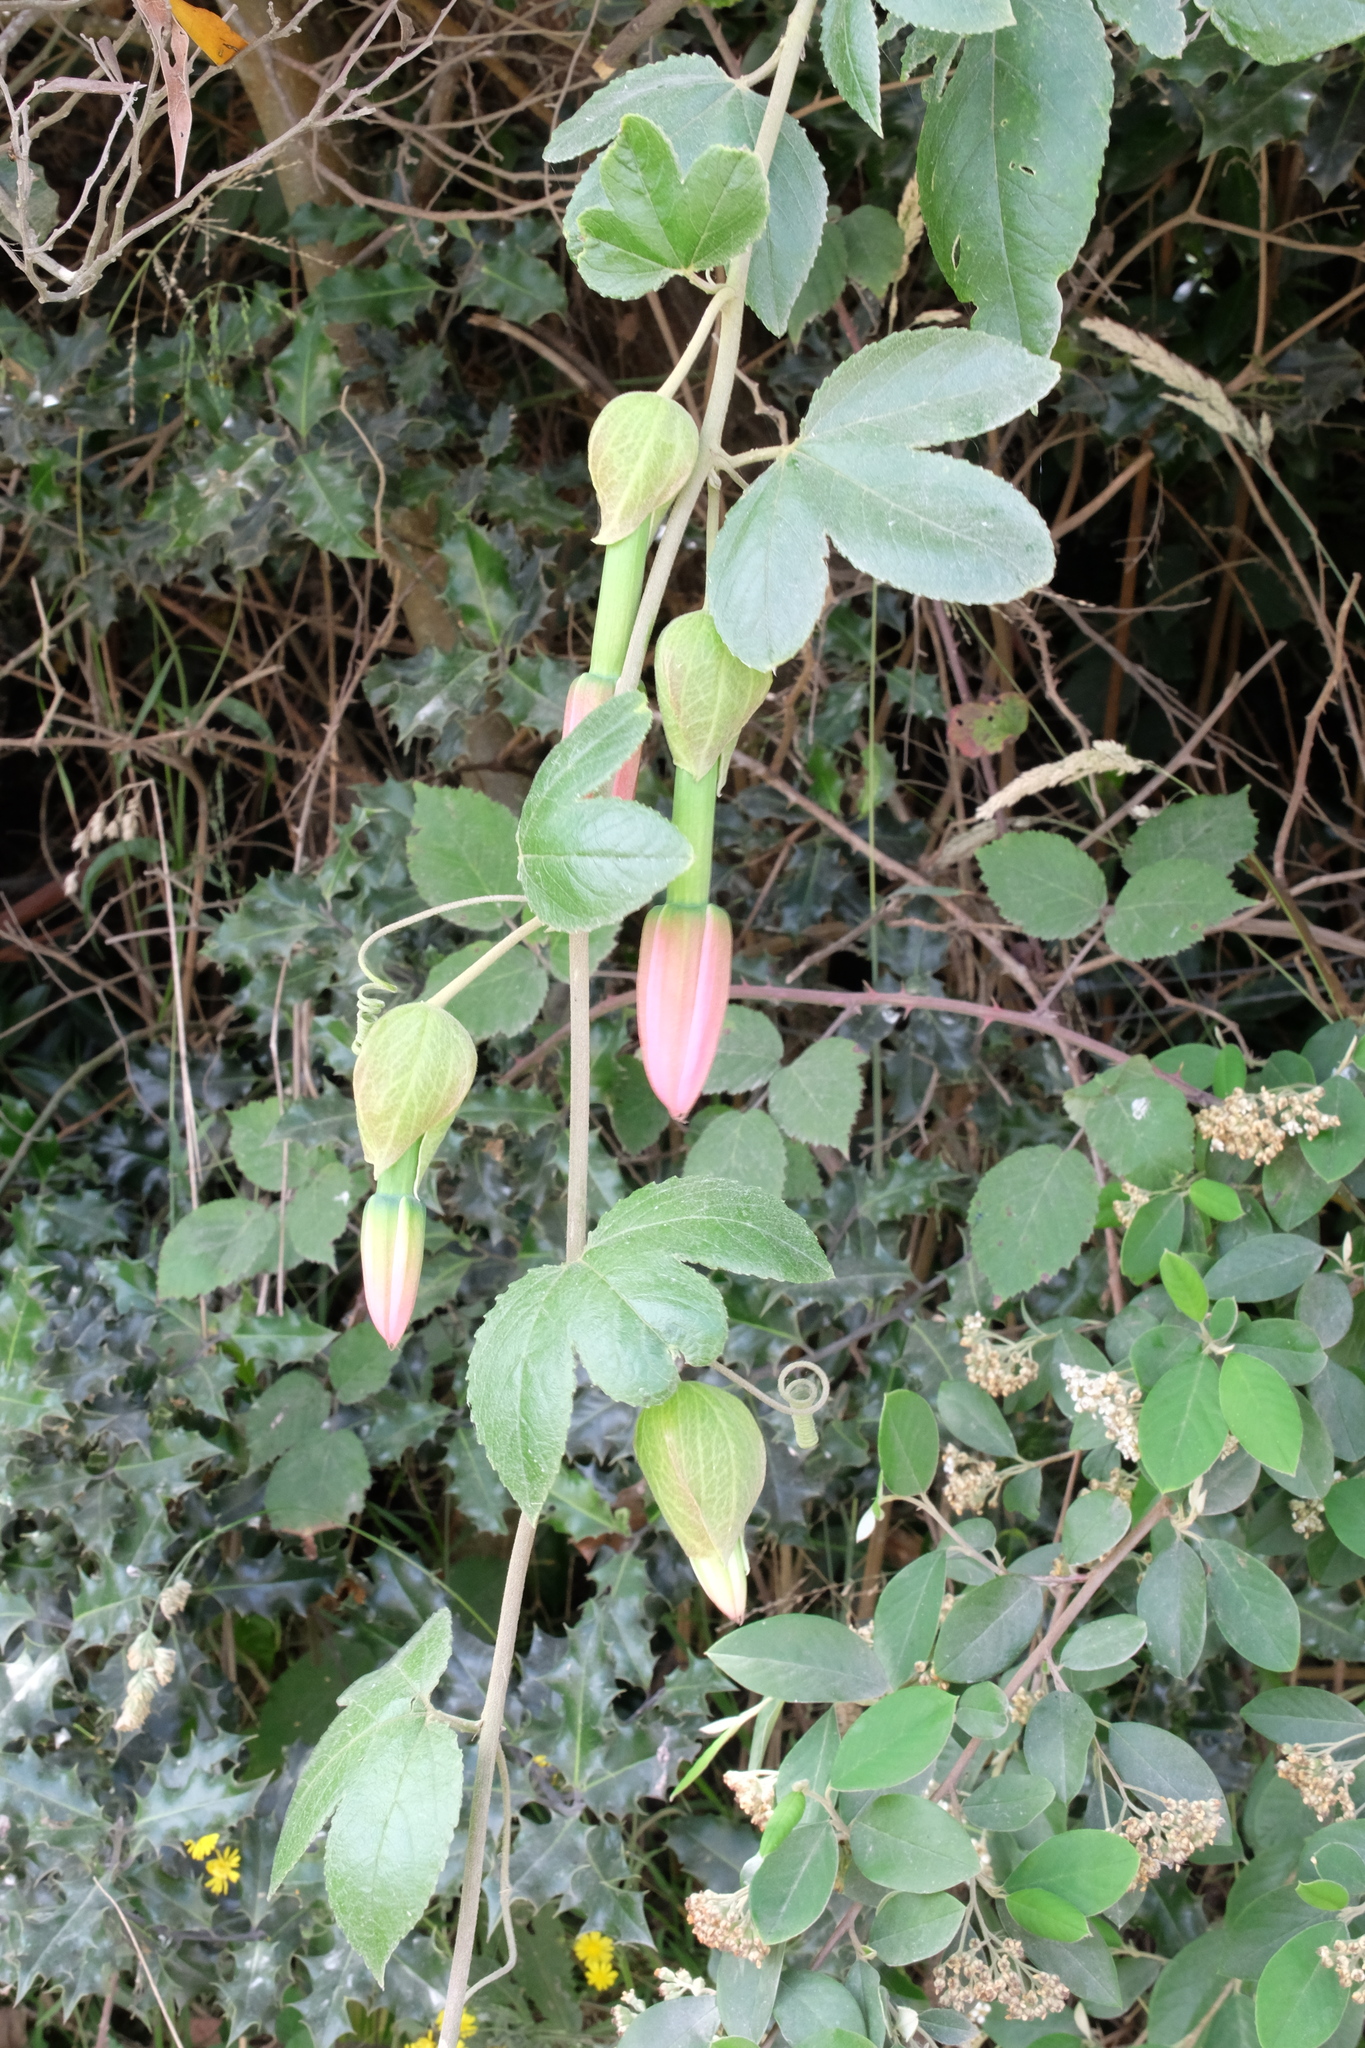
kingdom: Plantae
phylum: Tracheophyta
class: Magnoliopsida
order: Malpighiales
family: Passifloraceae
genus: Passiflora
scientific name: Passiflora tarminiana
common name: Banana poka
